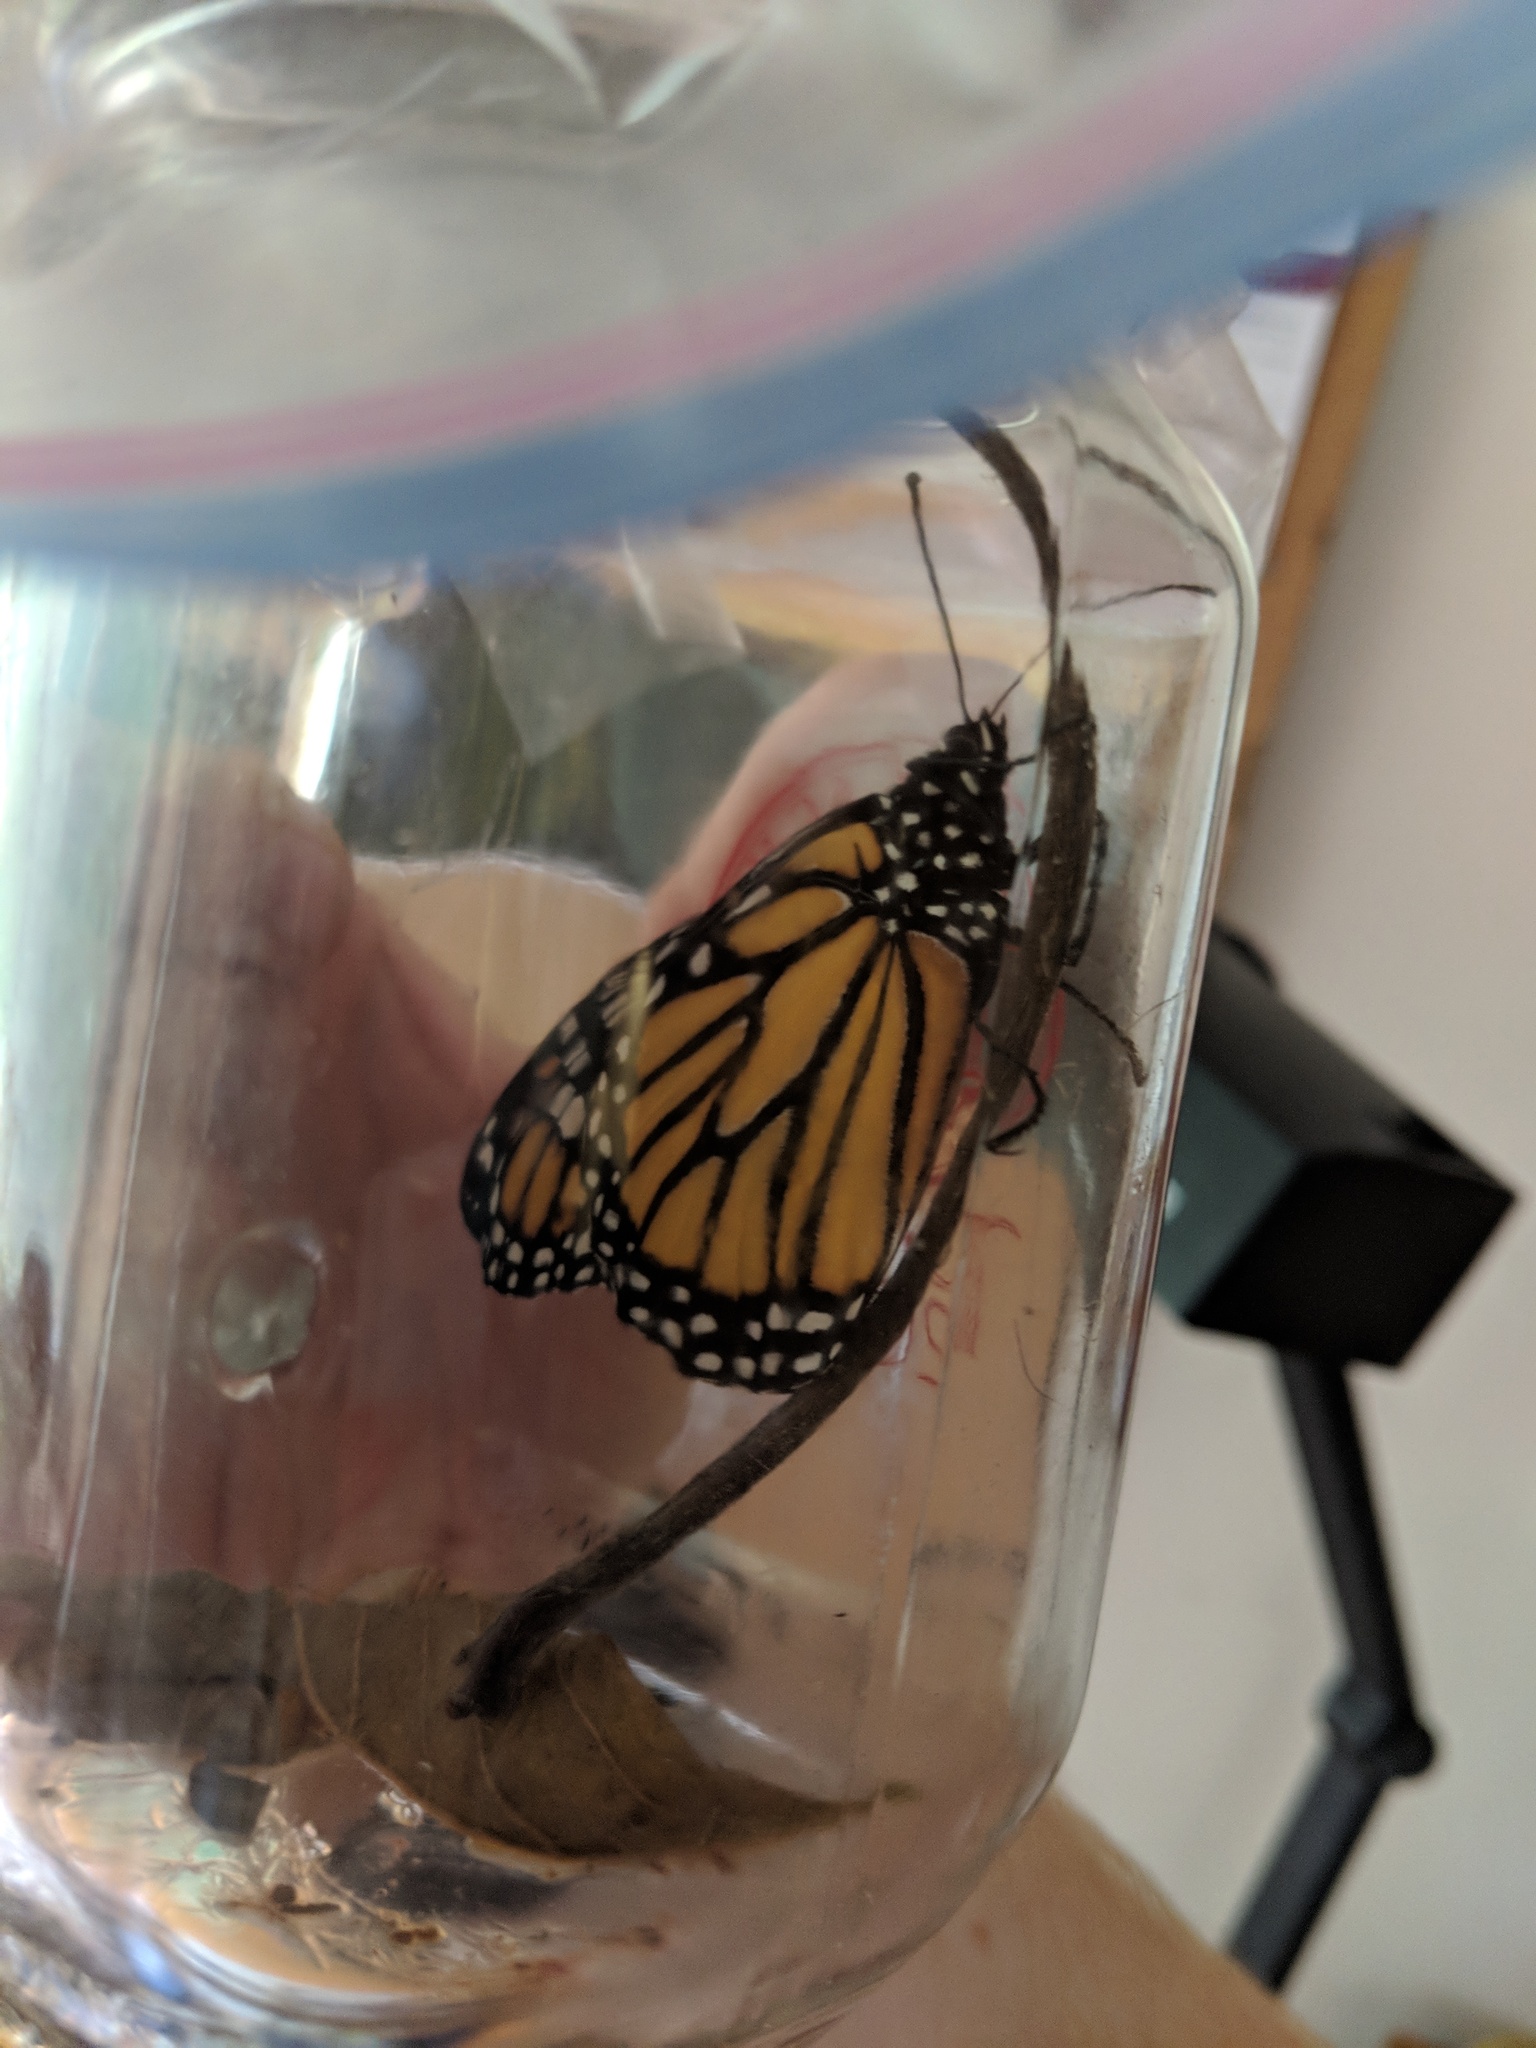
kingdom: Animalia
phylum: Arthropoda
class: Insecta
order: Lepidoptera
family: Nymphalidae
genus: Danaus
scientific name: Danaus plexippus
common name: Monarch
